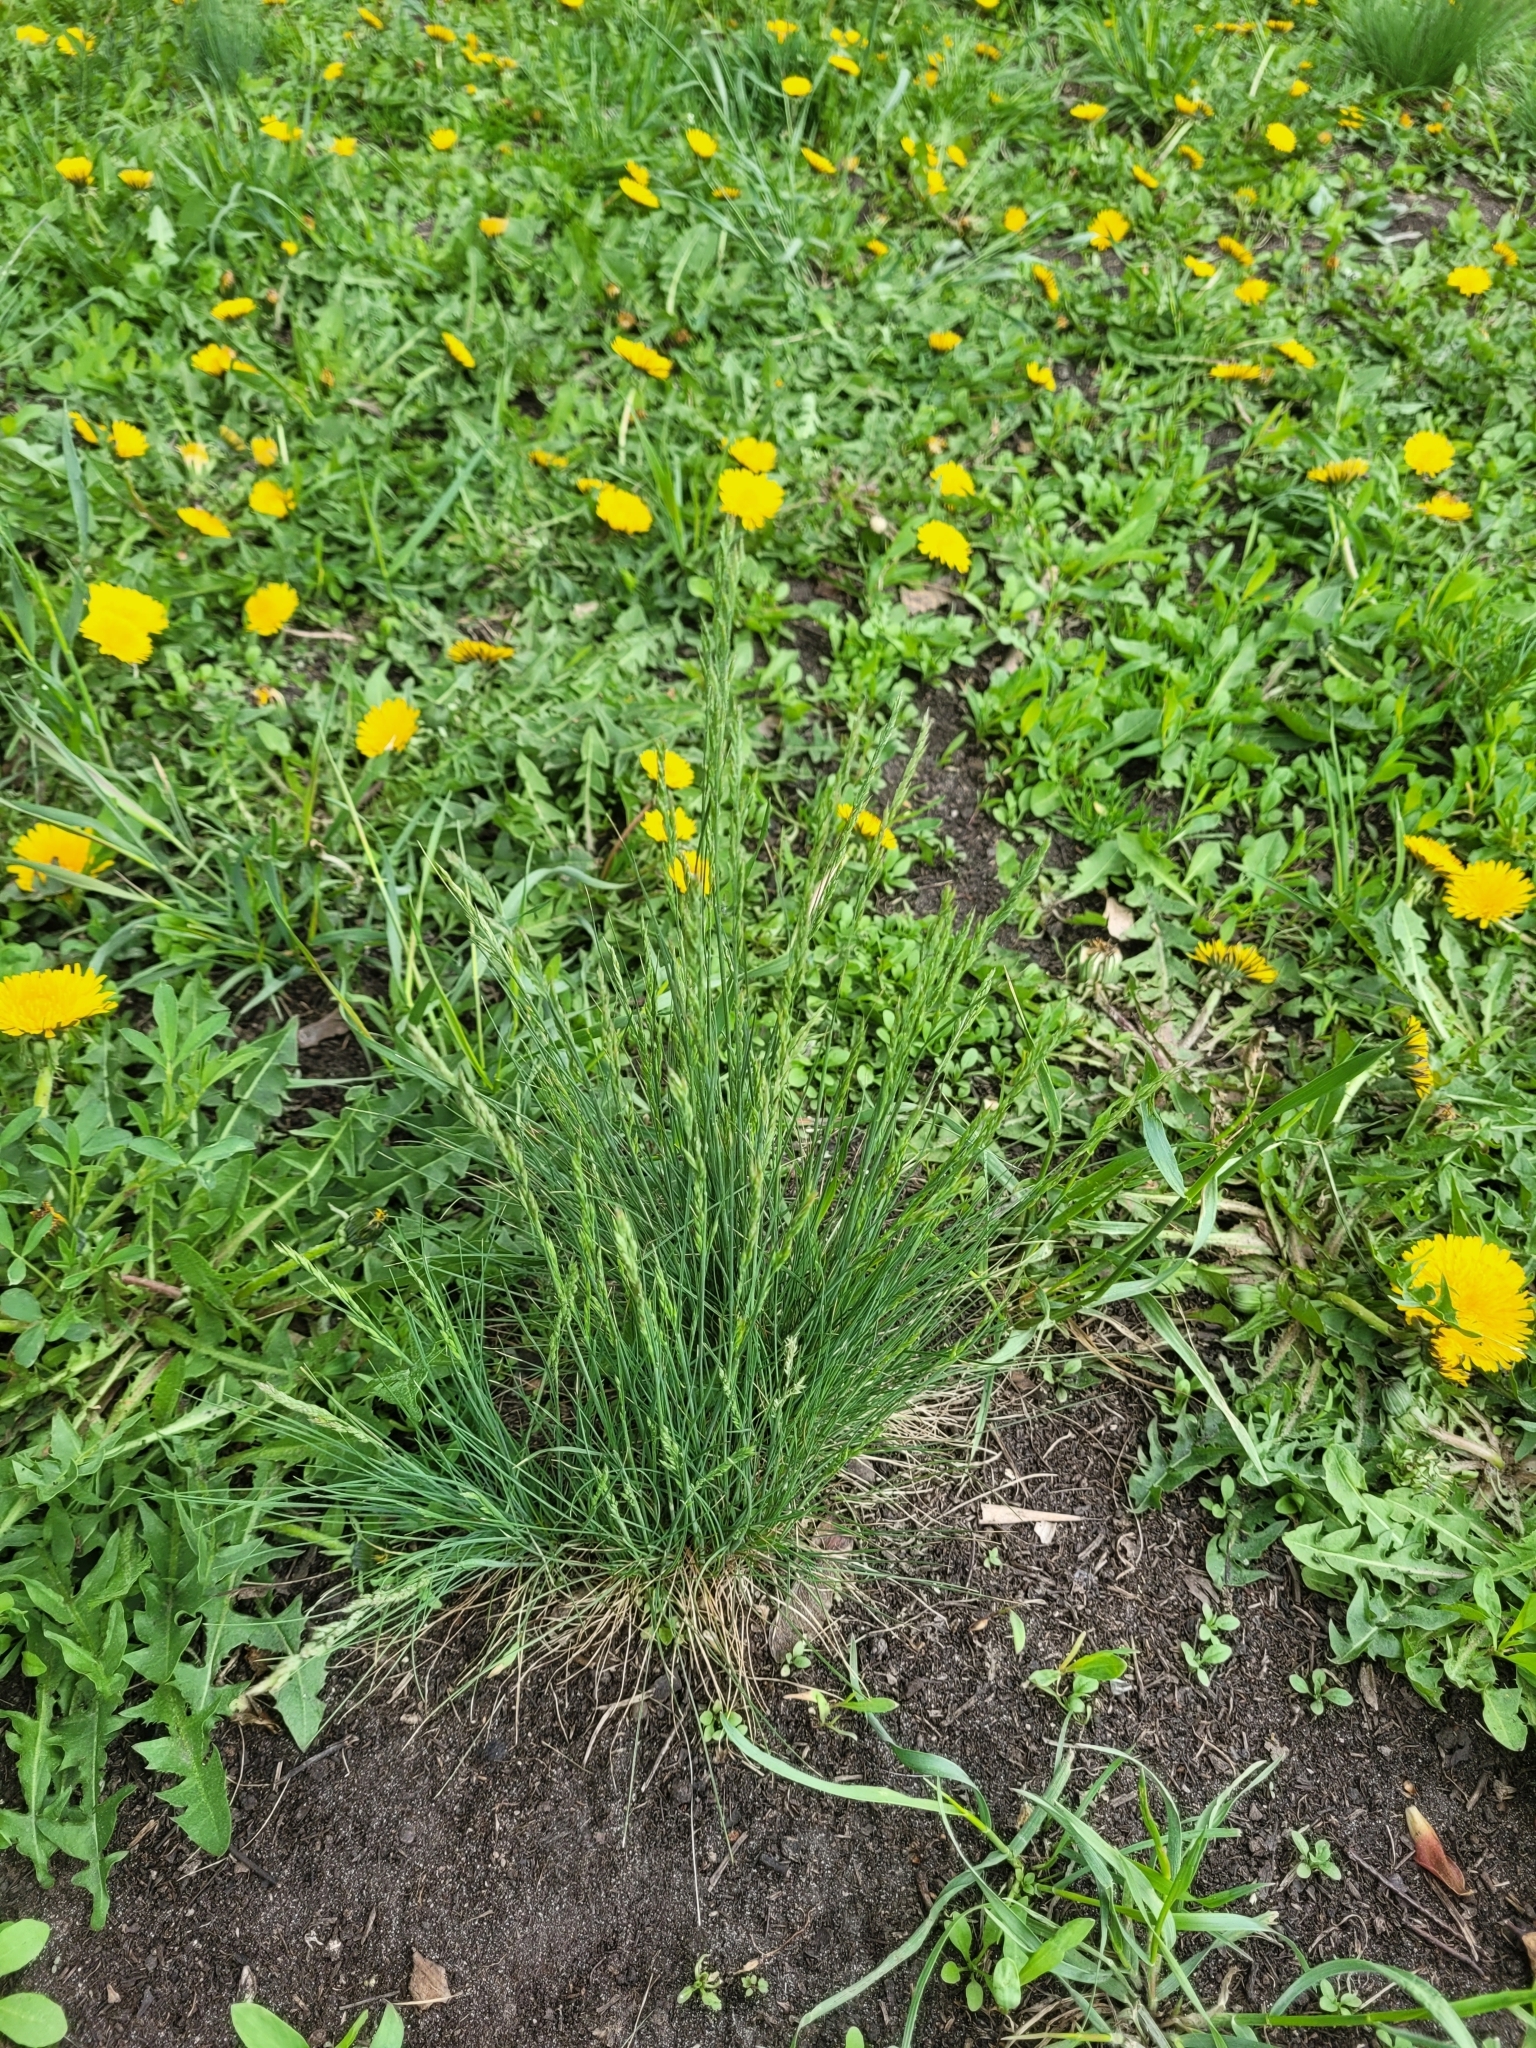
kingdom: Plantae
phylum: Tracheophyta
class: Liliopsida
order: Poales
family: Poaceae
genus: Festuca
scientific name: Festuca valesiaca
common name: Volga fescue
